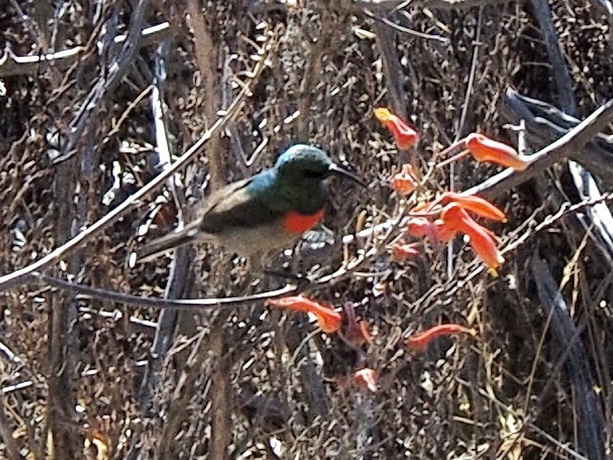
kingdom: Animalia
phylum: Chordata
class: Aves
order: Passeriformes
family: Nectariniidae
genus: Cinnyris
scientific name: Cinnyris manoensis
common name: Eastern miombo sunbird
